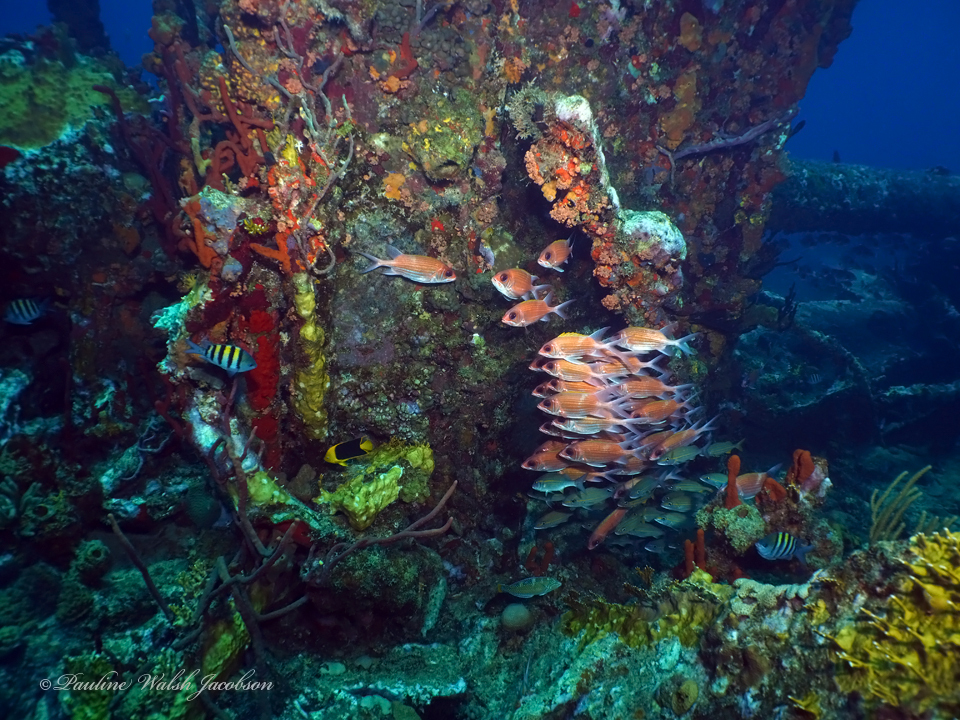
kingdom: Animalia
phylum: Chordata
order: Perciformes
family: Pomacanthidae
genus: Holacanthus
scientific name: Holacanthus tricolor
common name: Rock beauty
